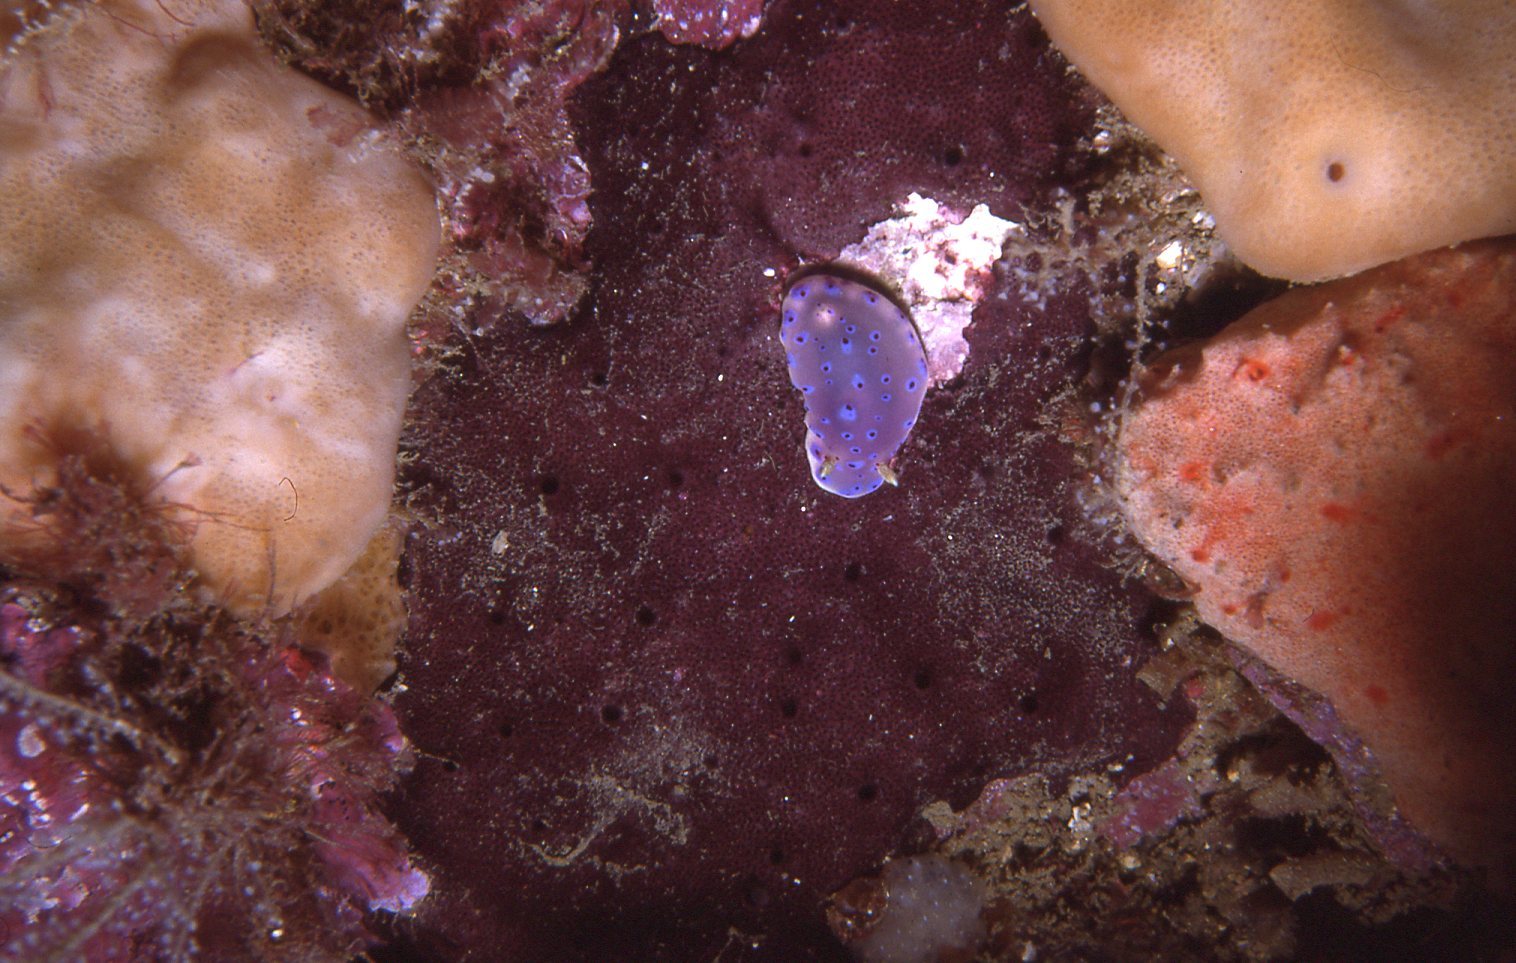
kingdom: Animalia
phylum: Mollusca
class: Gastropoda
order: Nudibranchia
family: Chromodorididae
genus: Goniobranchus
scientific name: Goniobranchus thompsoni
